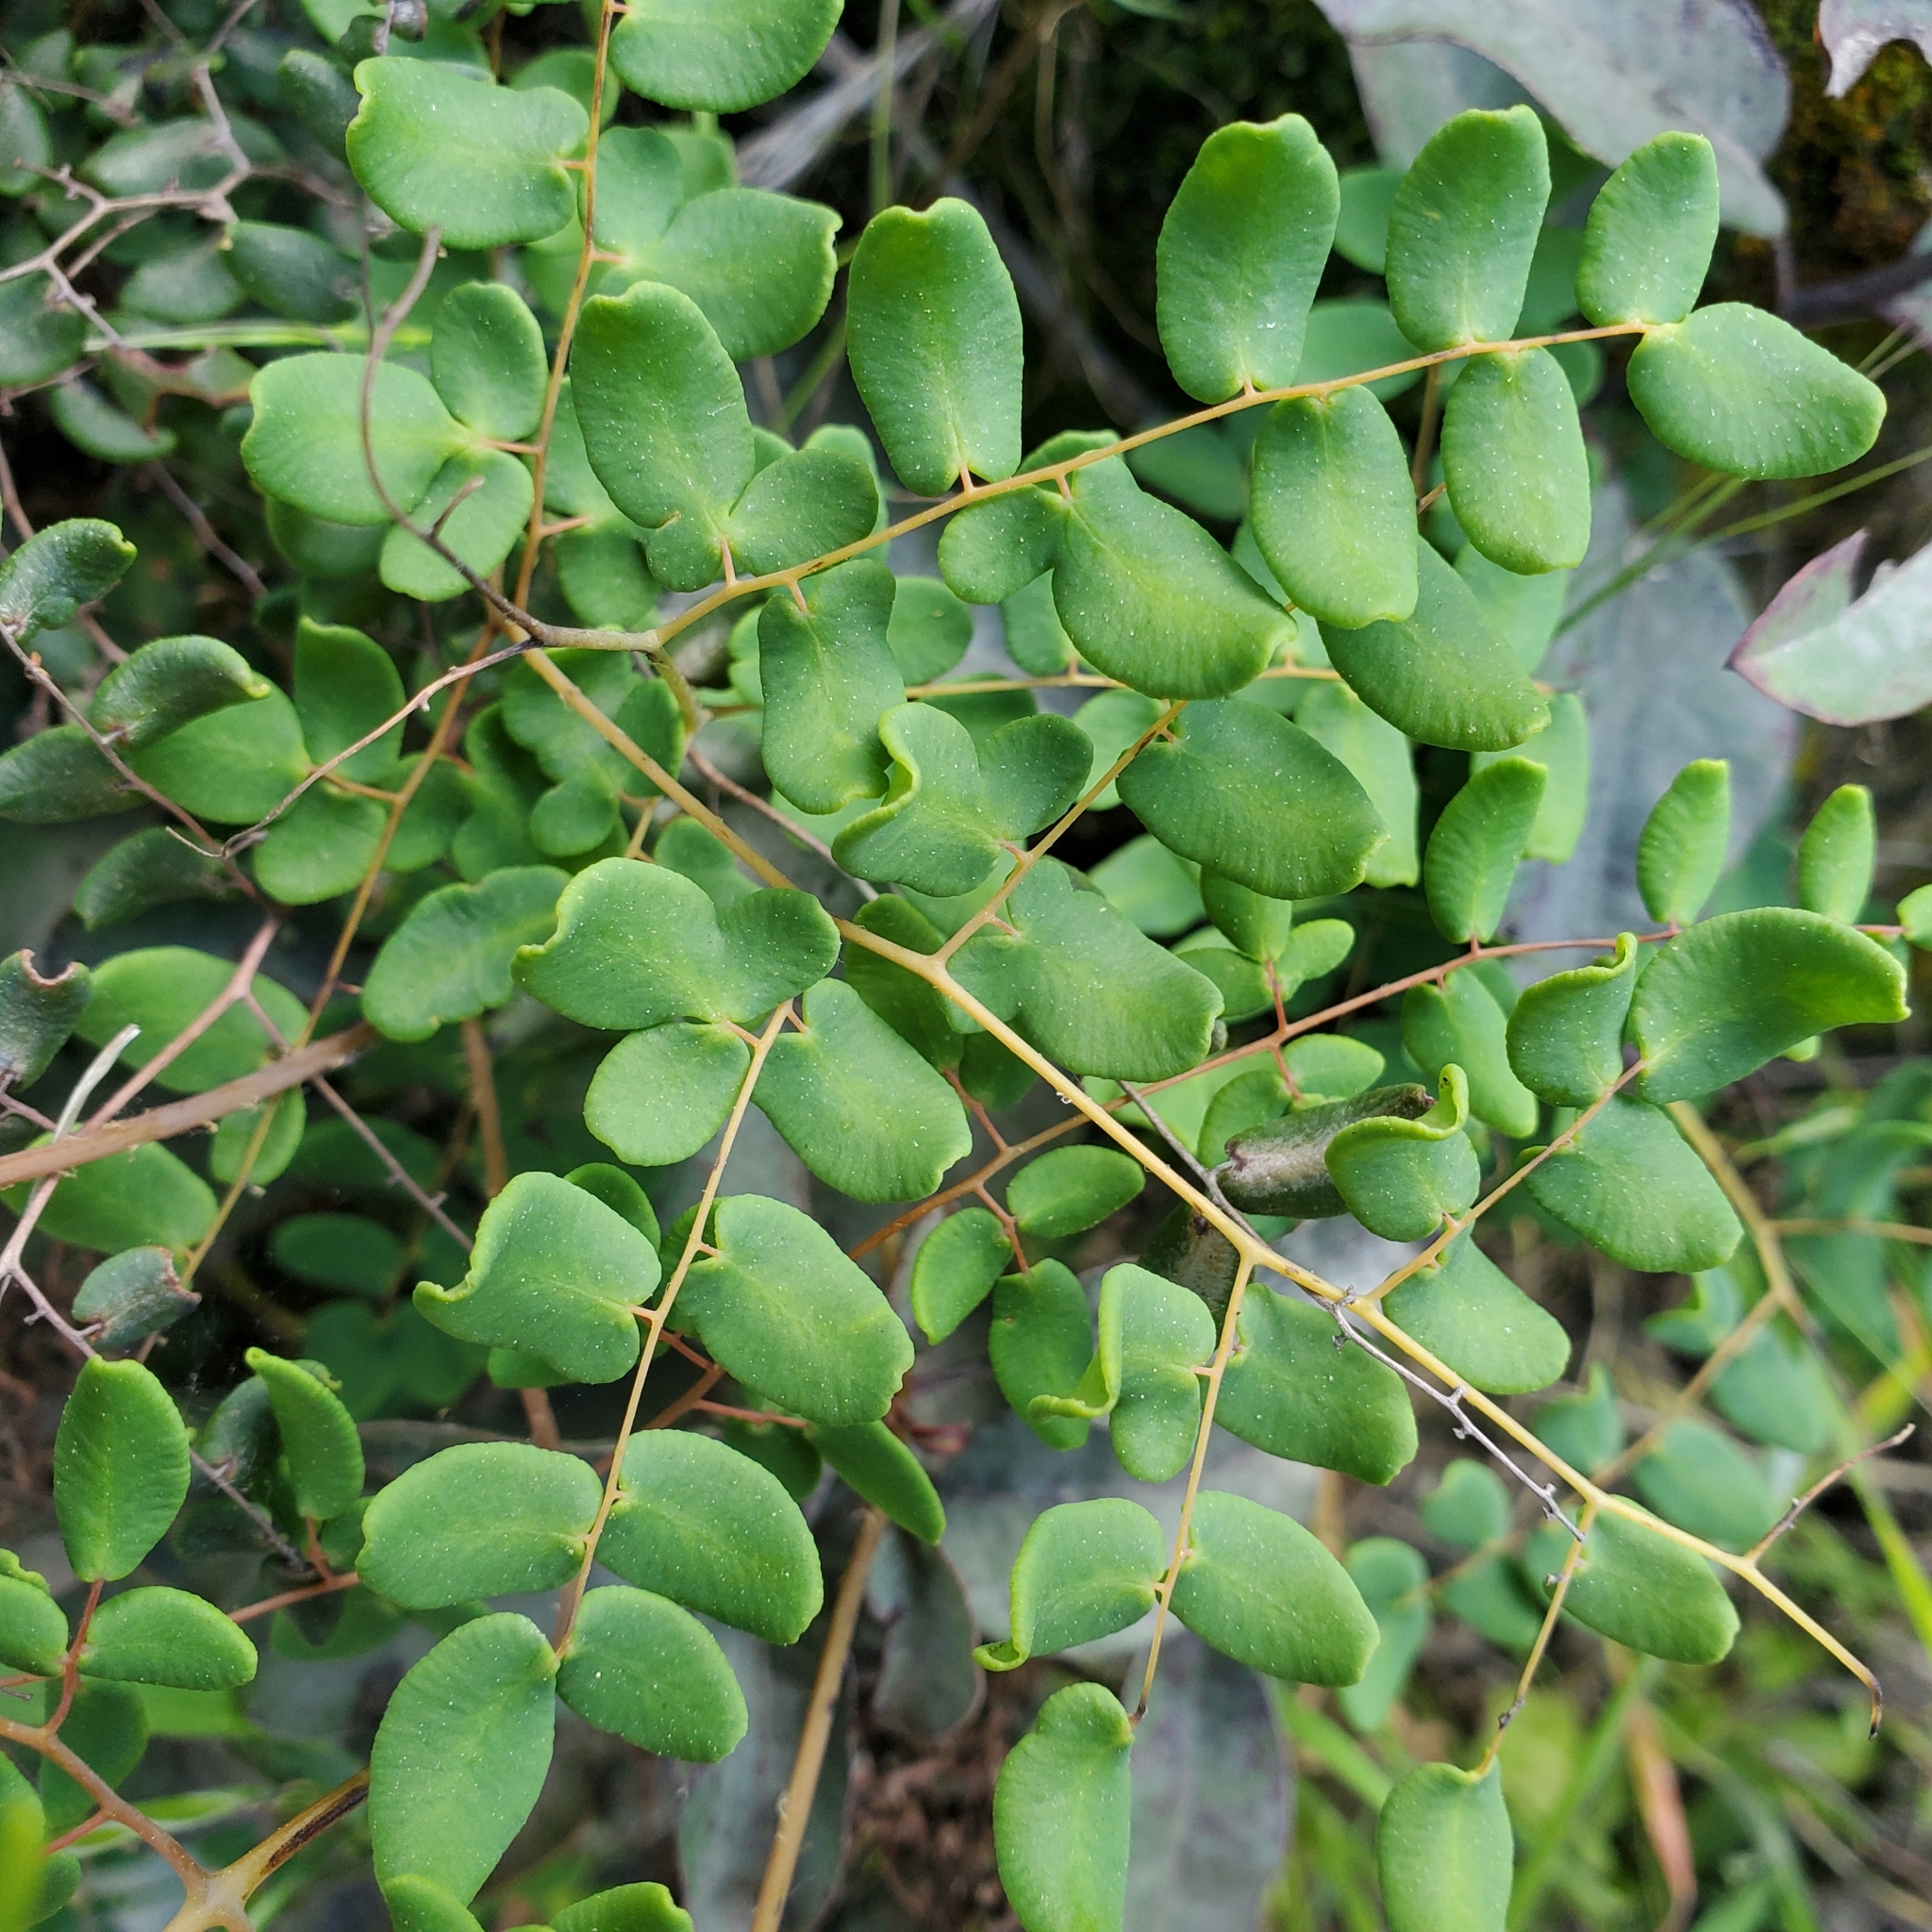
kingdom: Plantae
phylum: Tracheophyta
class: Polypodiopsida
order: Polypodiales
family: Pteridaceae
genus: Pellaea
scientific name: Pellaea andromedifolia
